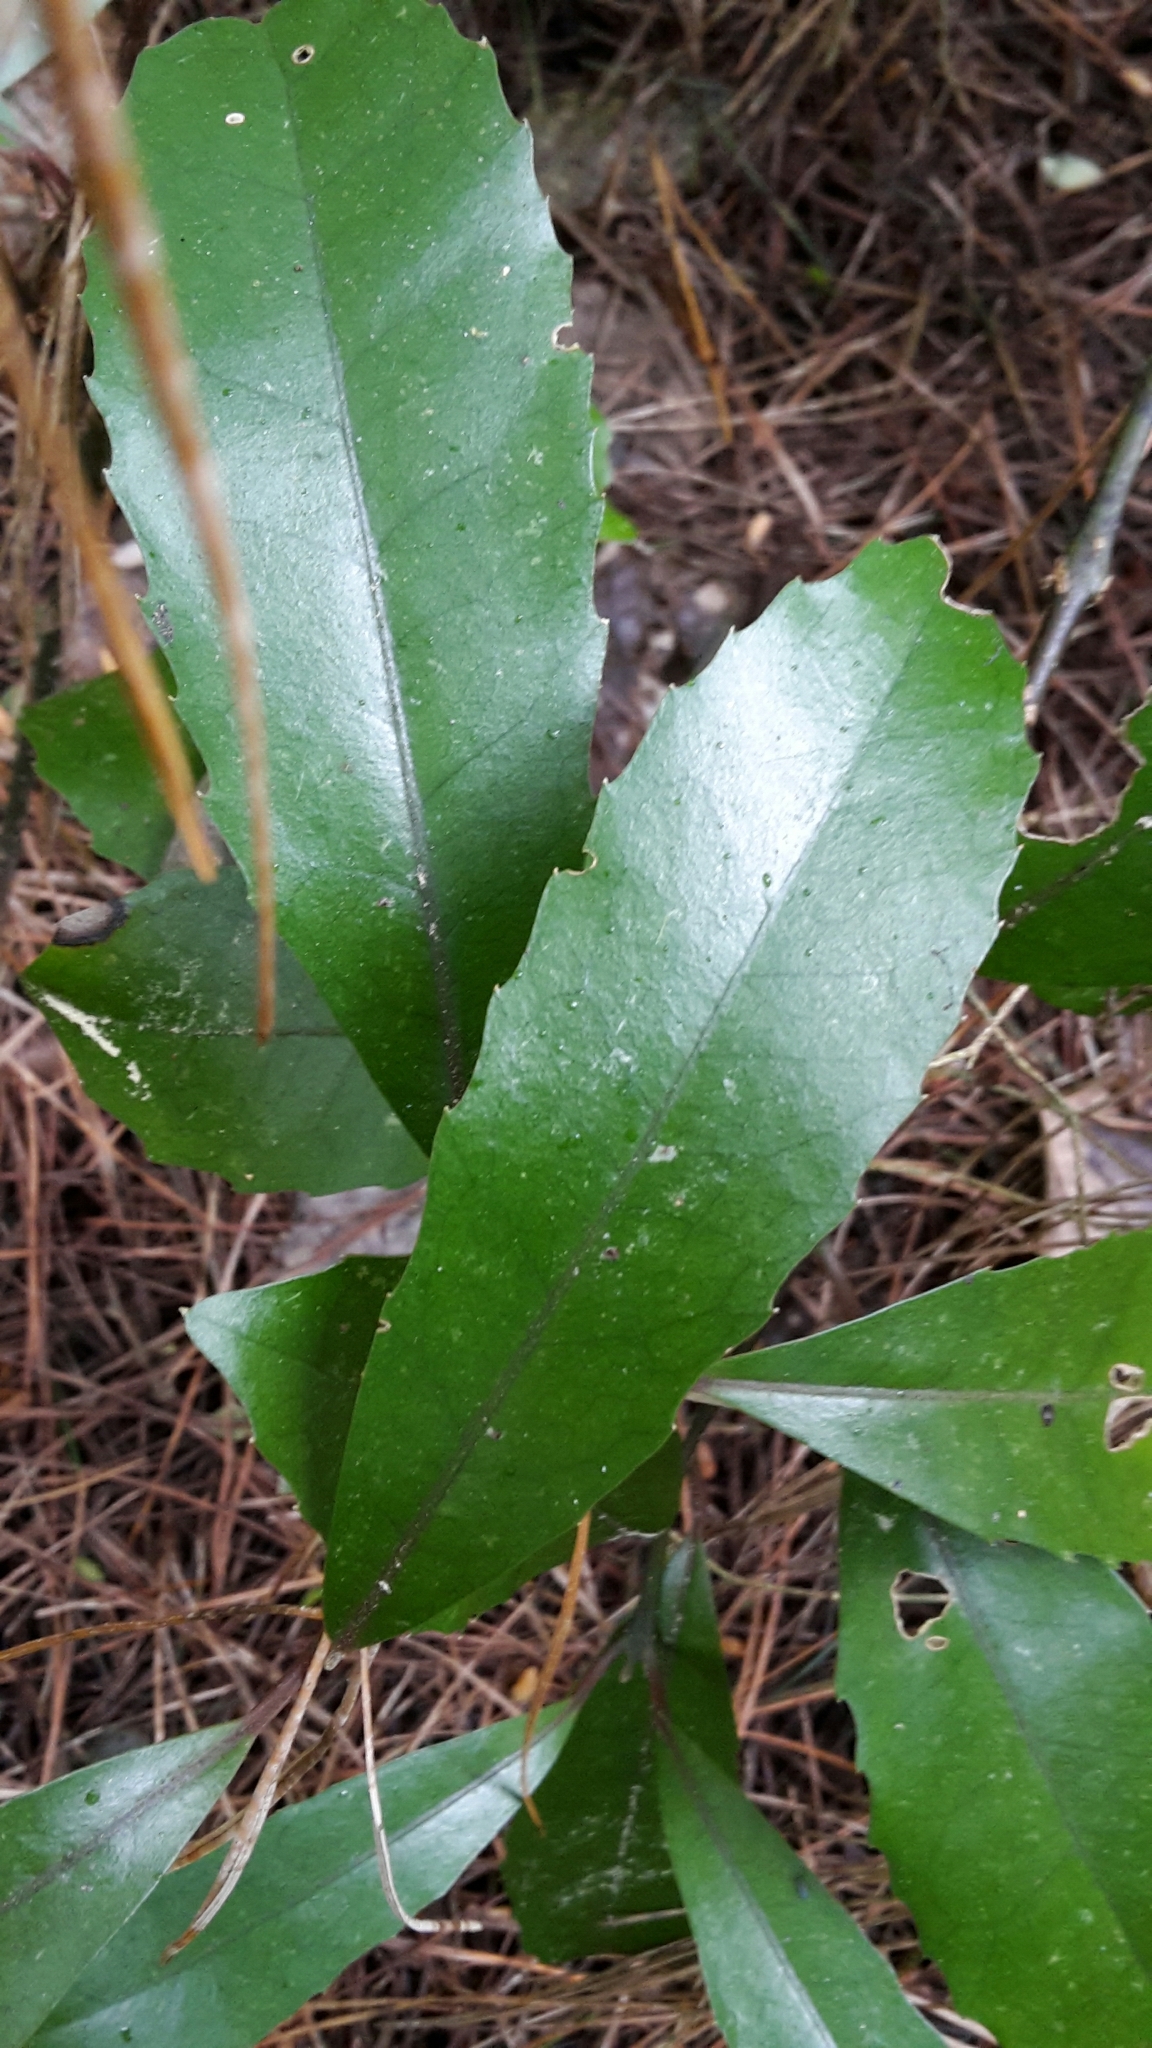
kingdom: Plantae
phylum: Tracheophyta
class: Magnoliopsida
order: Laurales
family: Monimiaceae
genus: Hedycarya
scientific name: Hedycarya arborea
